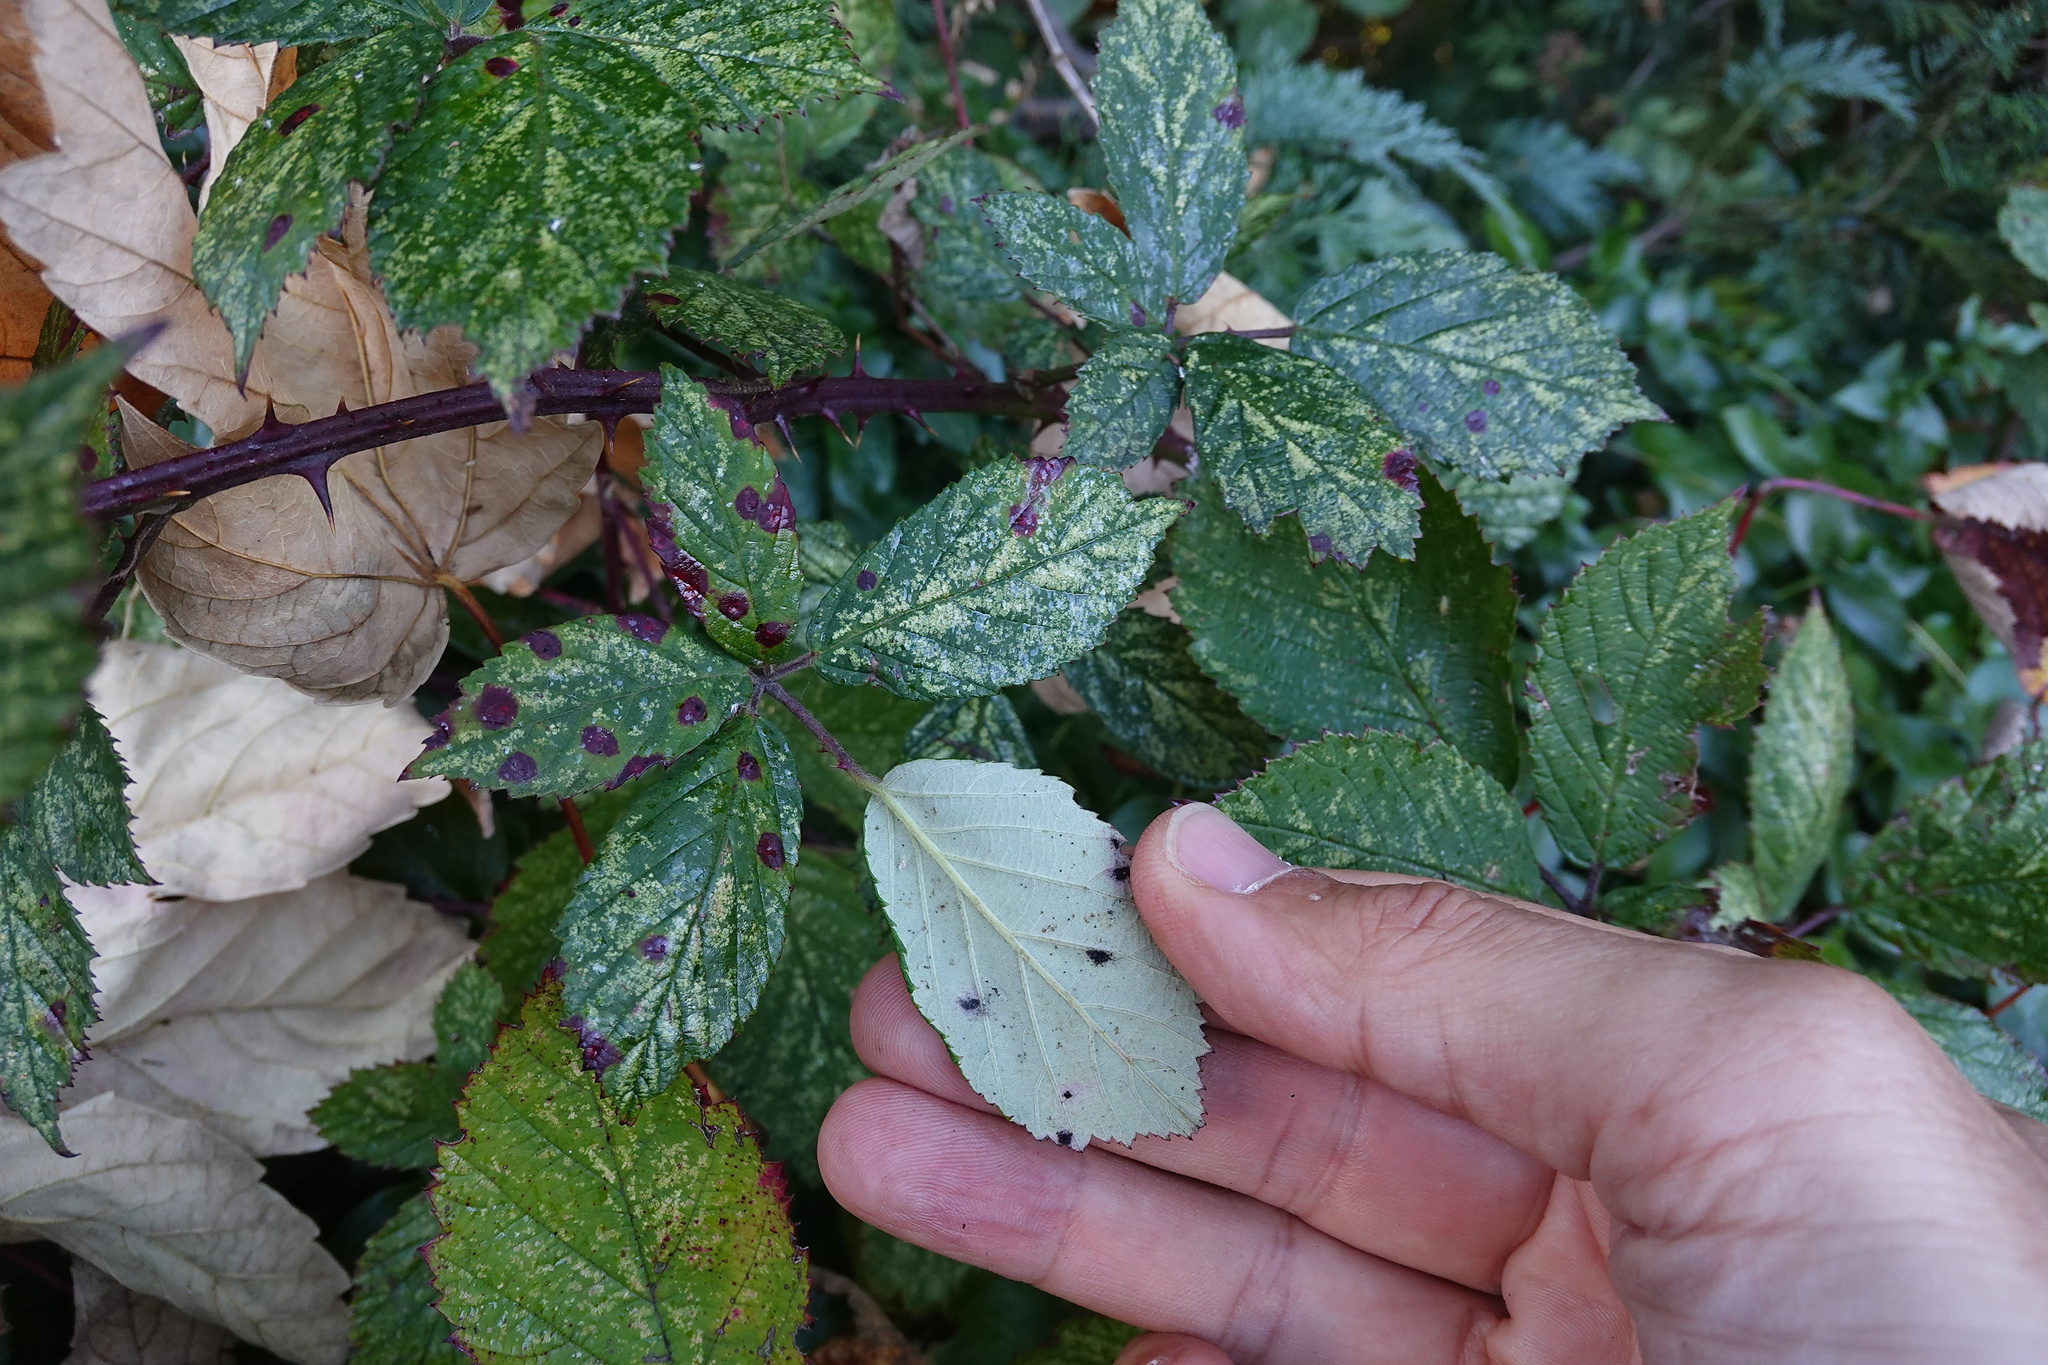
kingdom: Fungi
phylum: Basidiomycota
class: Pucciniomycetes
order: Pucciniales
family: Phragmidiaceae
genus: Phragmidium
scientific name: Phragmidium violaceum
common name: Violet bramble rust
